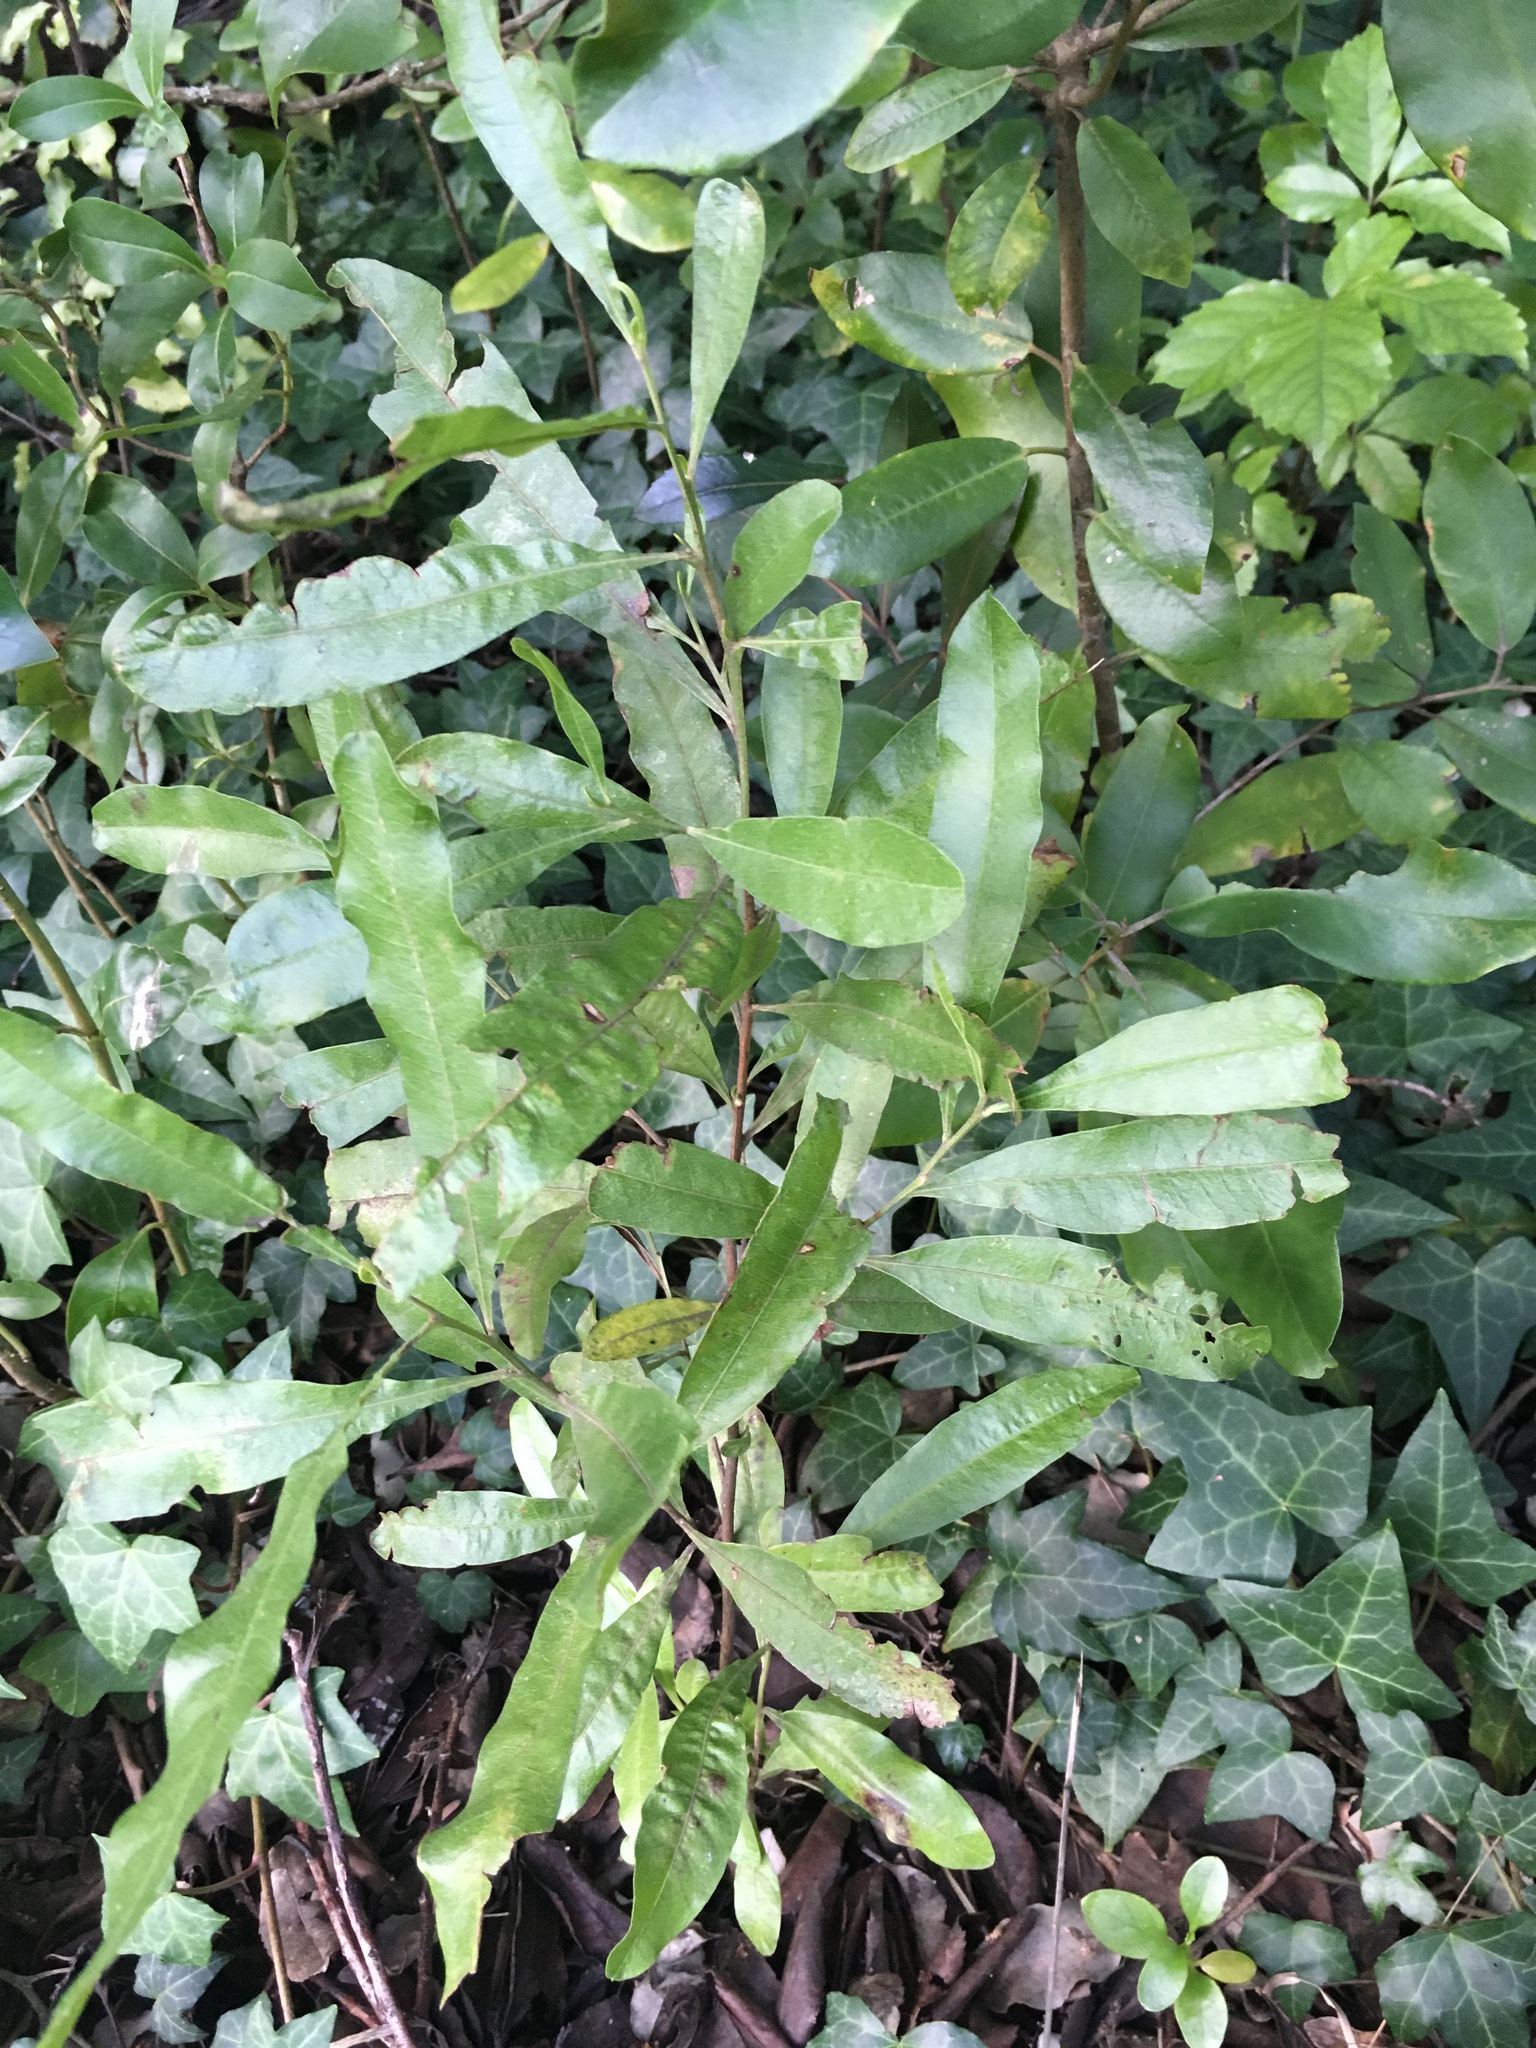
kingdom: Plantae
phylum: Tracheophyta
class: Magnoliopsida
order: Sapindales
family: Sapindaceae
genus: Dodonaea
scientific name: Dodonaea viscosa
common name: Hopbush
